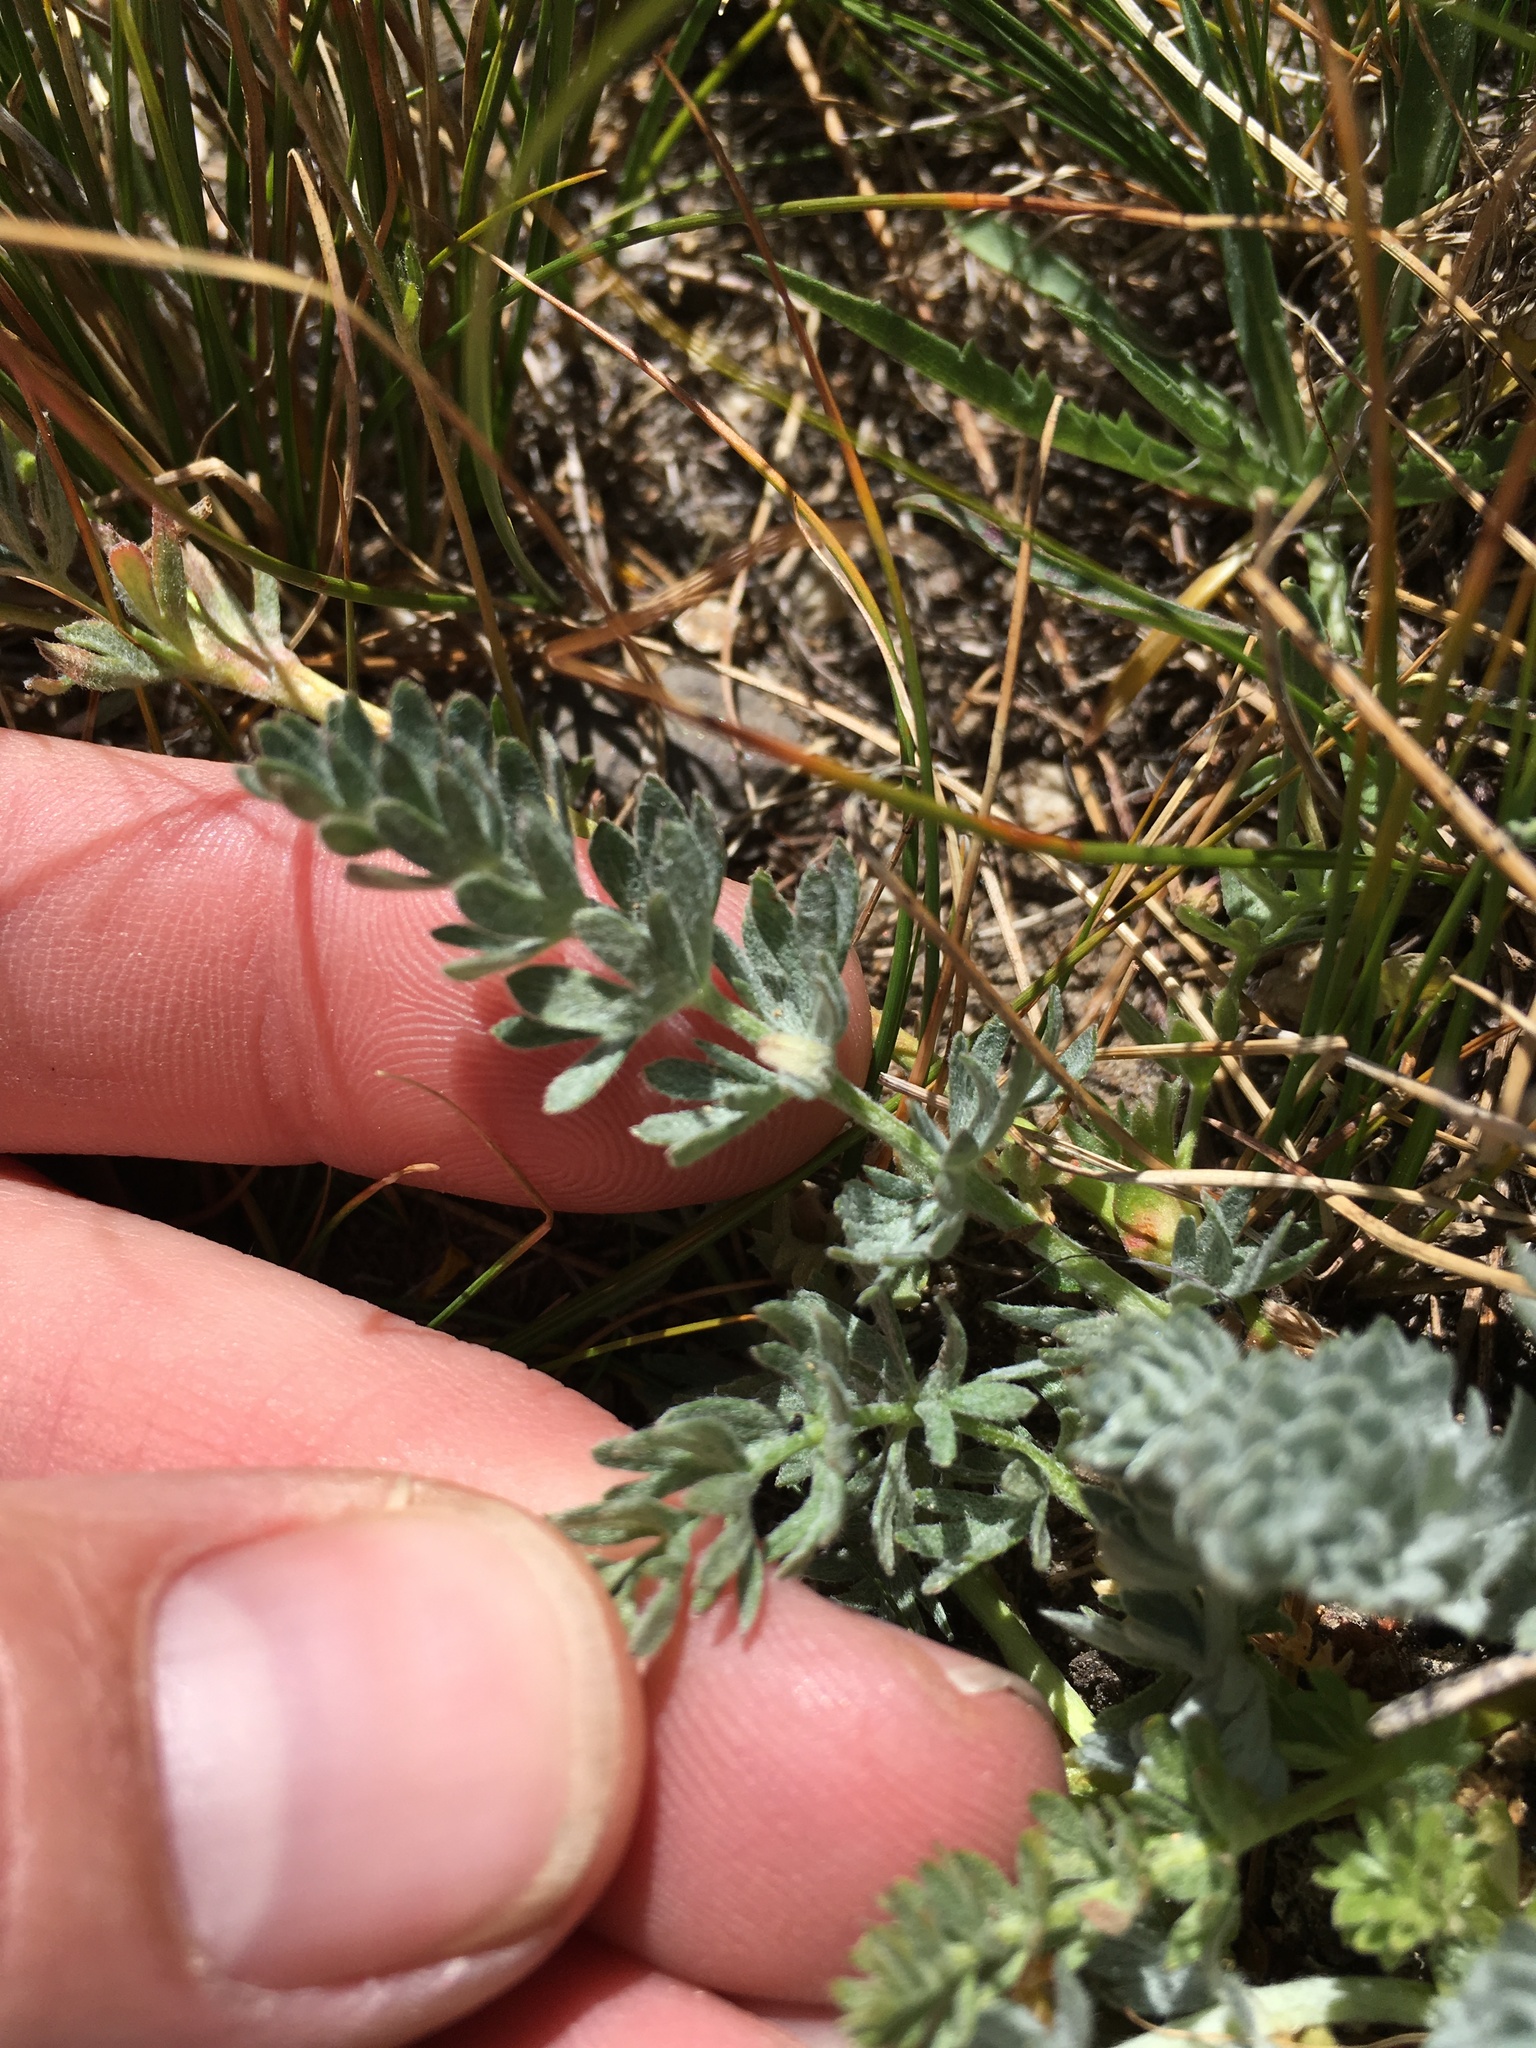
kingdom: Plantae
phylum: Tracheophyta
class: Magnoliopsida
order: Rosales
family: Rosaceae
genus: Potentilla
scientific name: Potentilla breweri
